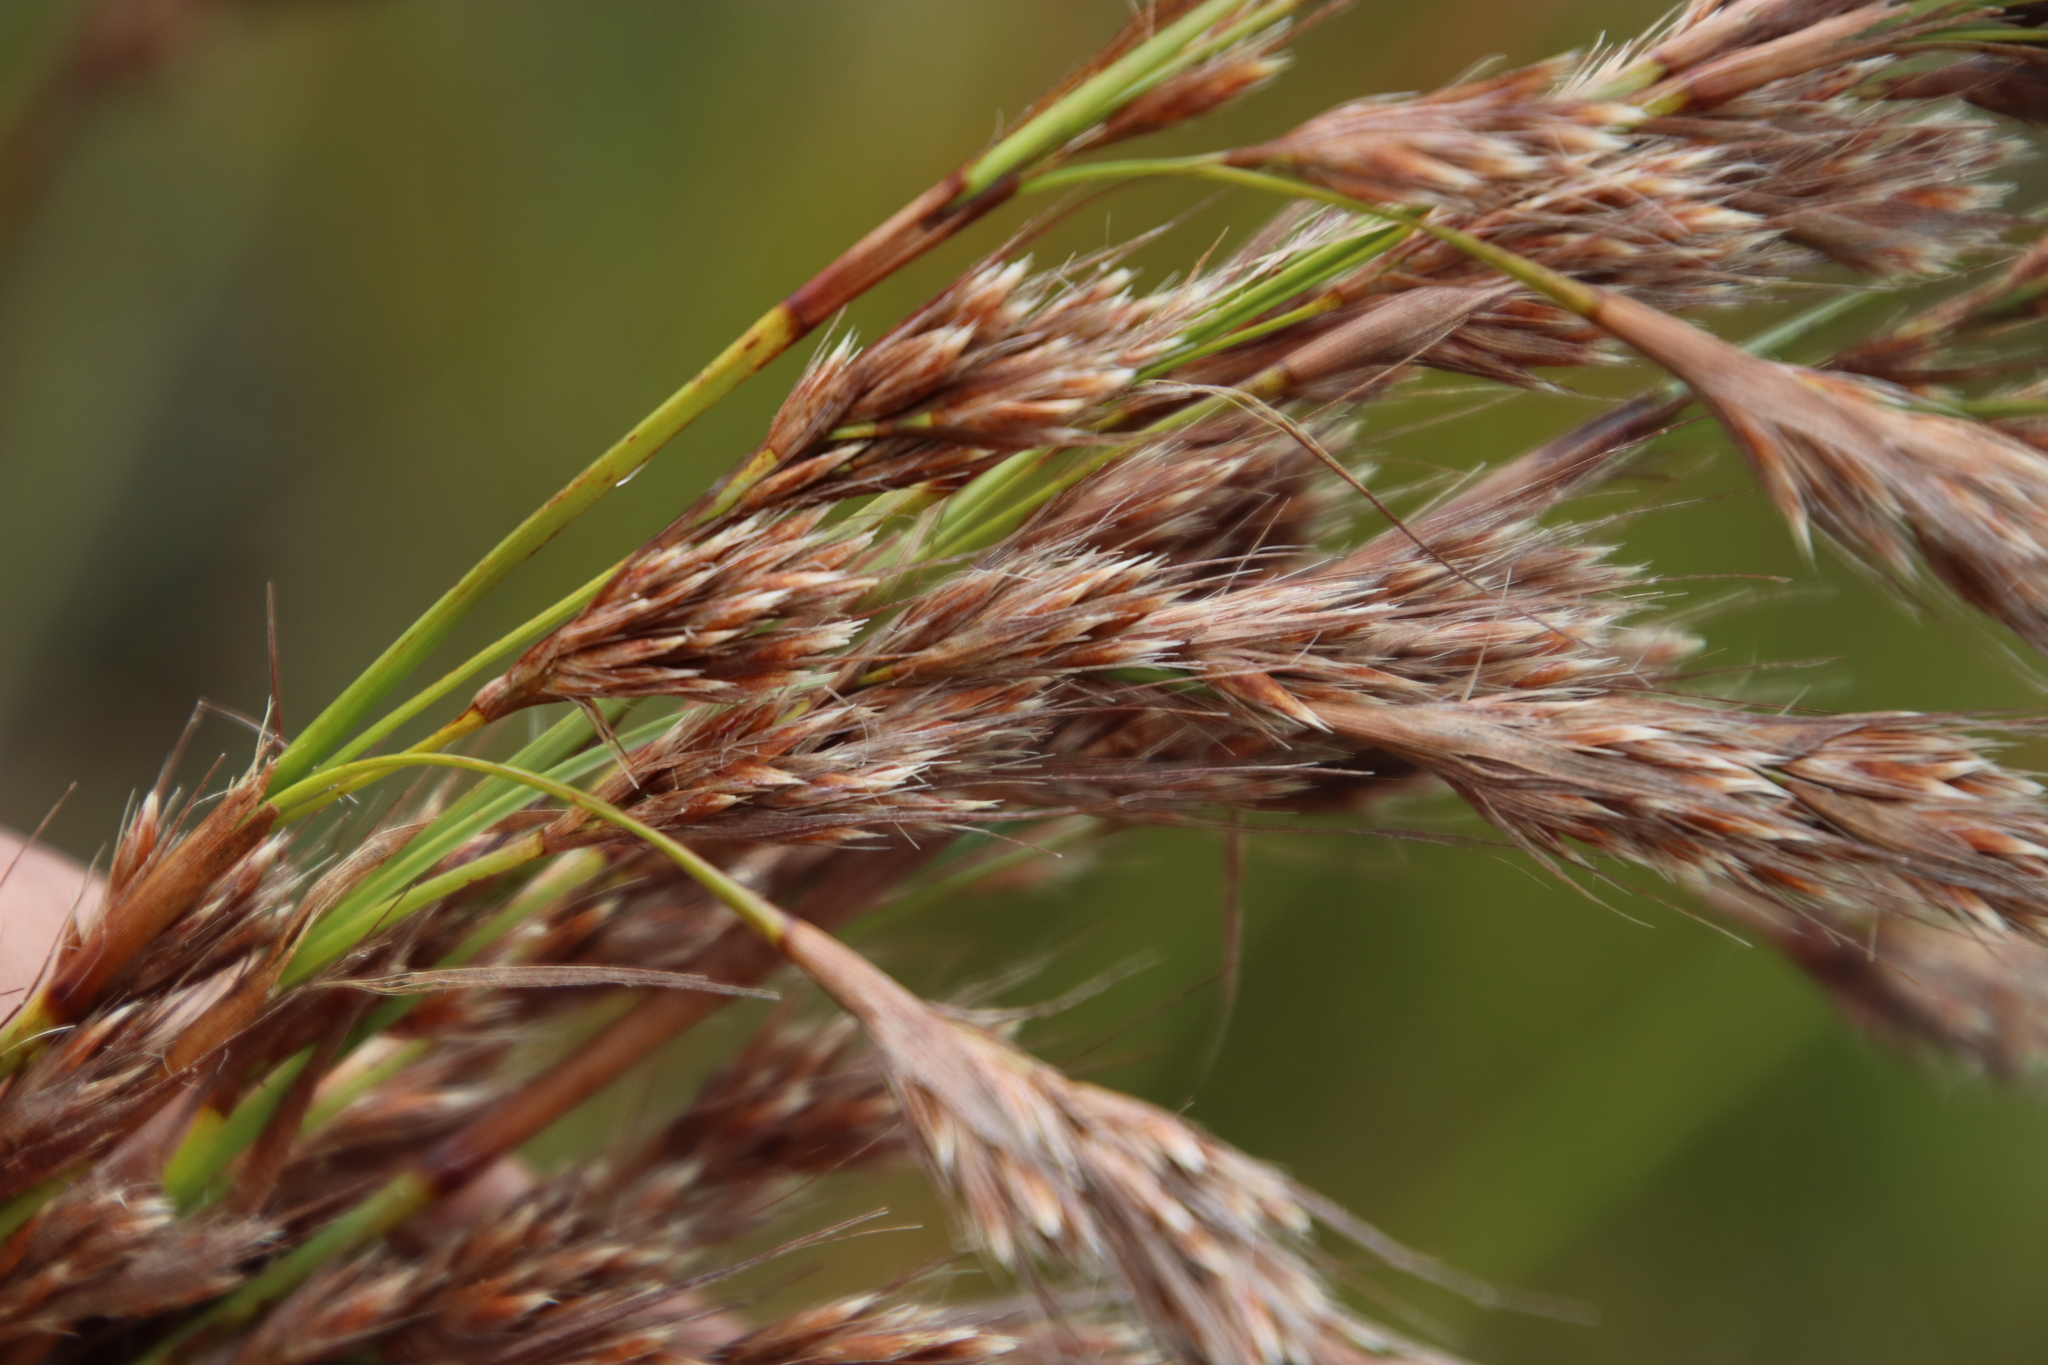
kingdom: Plantae
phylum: Tracheophyta
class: Liliopsida
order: Poales
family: Cyperaceae
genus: Tetraria
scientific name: Tetraria involucrata
